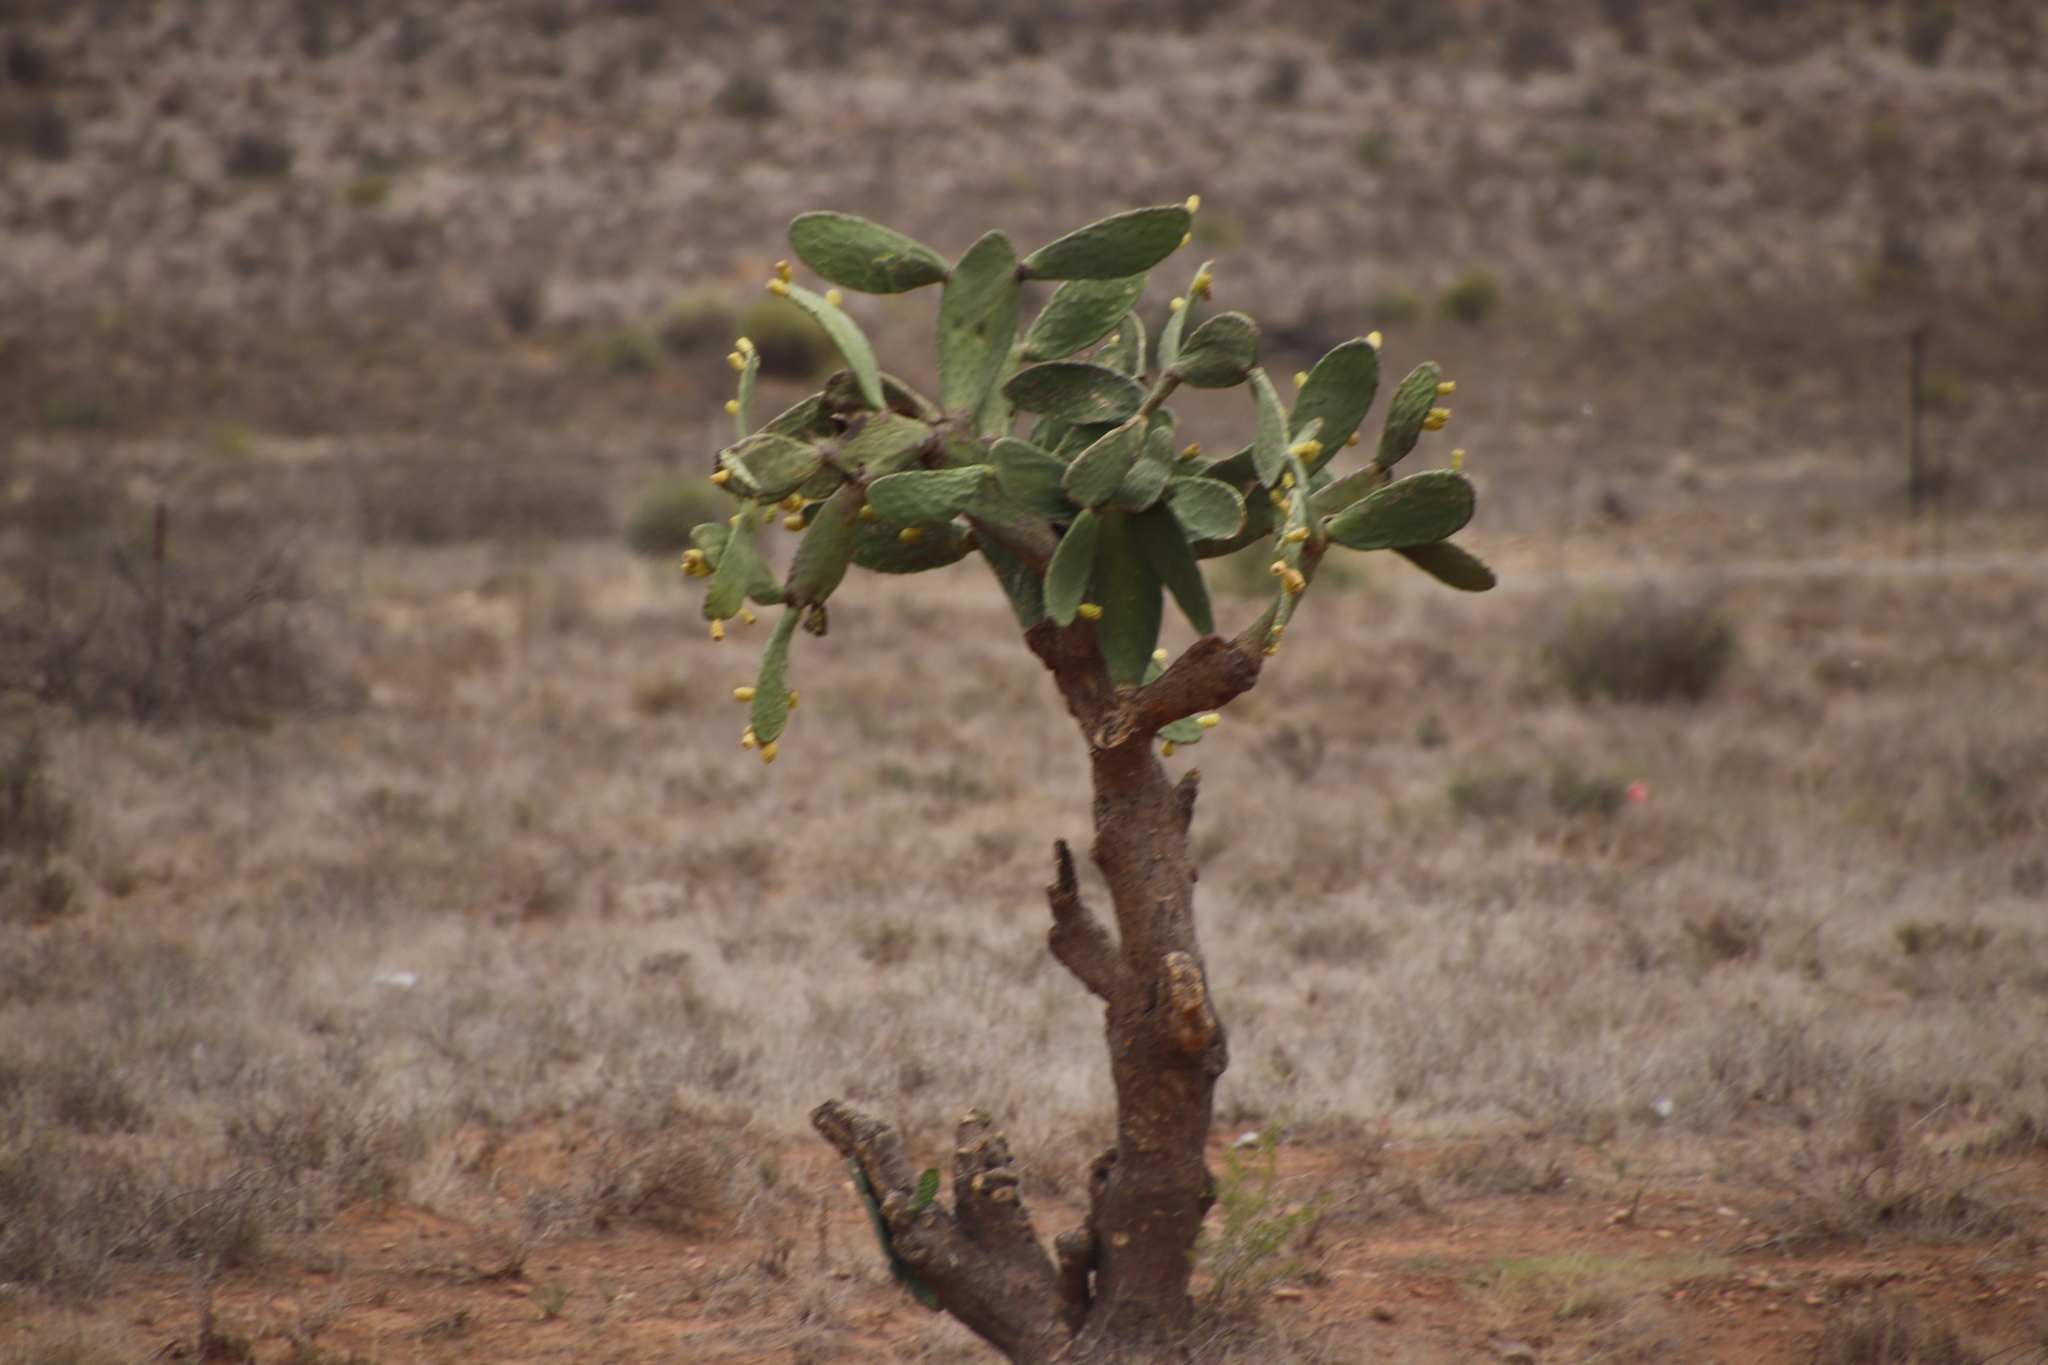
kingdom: Plantae
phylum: Tracheophyta
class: Magnoliopsida
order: Caryophyllales
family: Cactaceae
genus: Opuntia
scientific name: Opuntia ficus-indica
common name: Barbary fig
